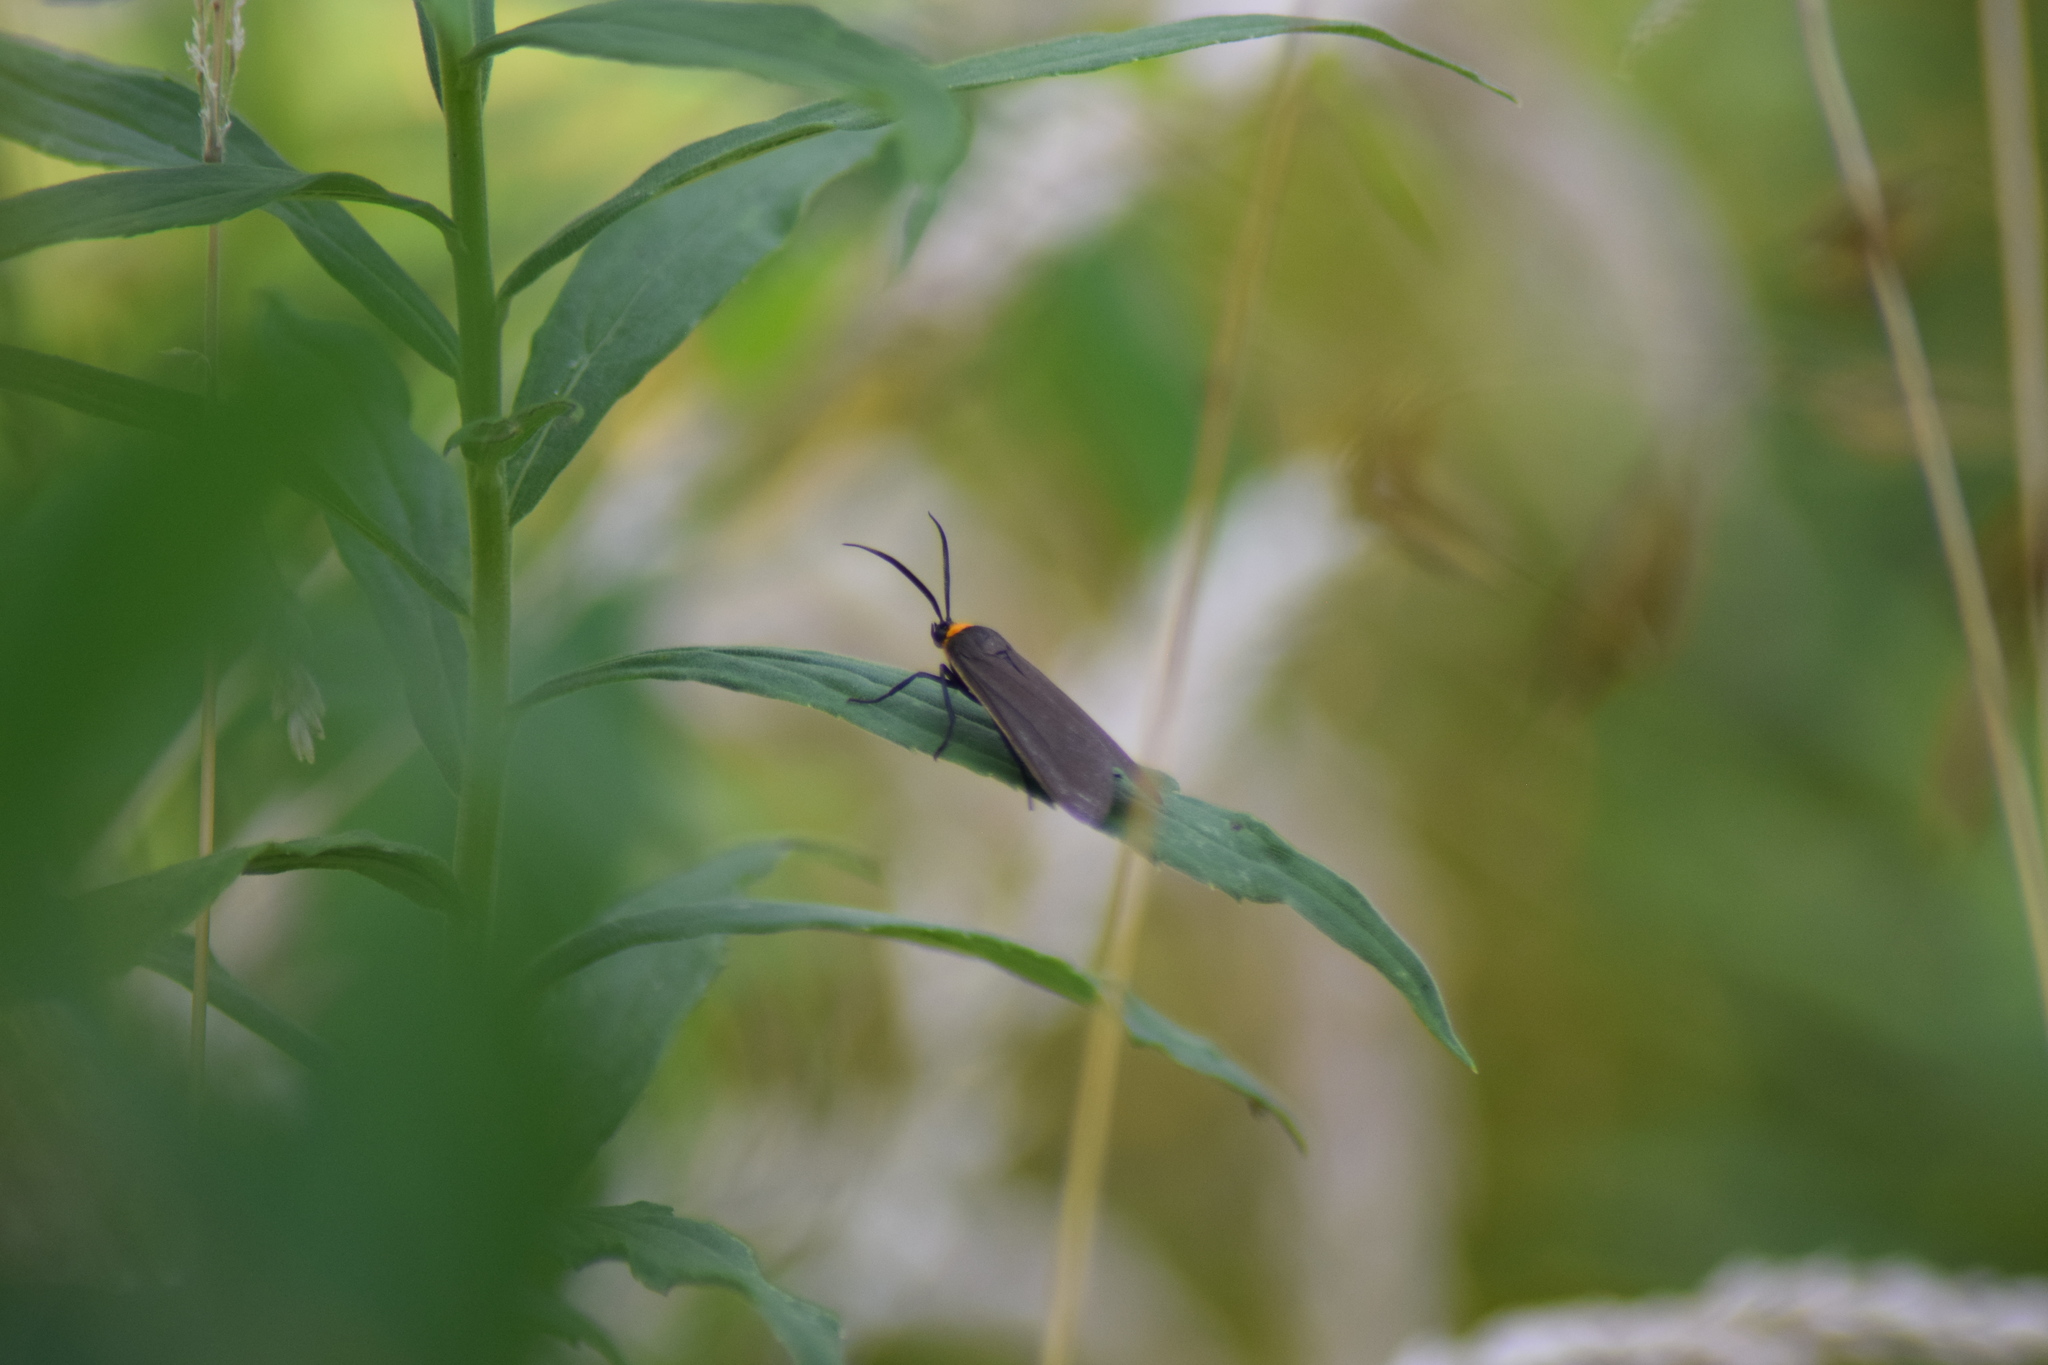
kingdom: Animalia
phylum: Arthropoda
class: Insecta
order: Lepidoptera
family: Erebidae
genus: Cisseps
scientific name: Cisseps fulvicollis
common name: Yellow-collared scape moth
